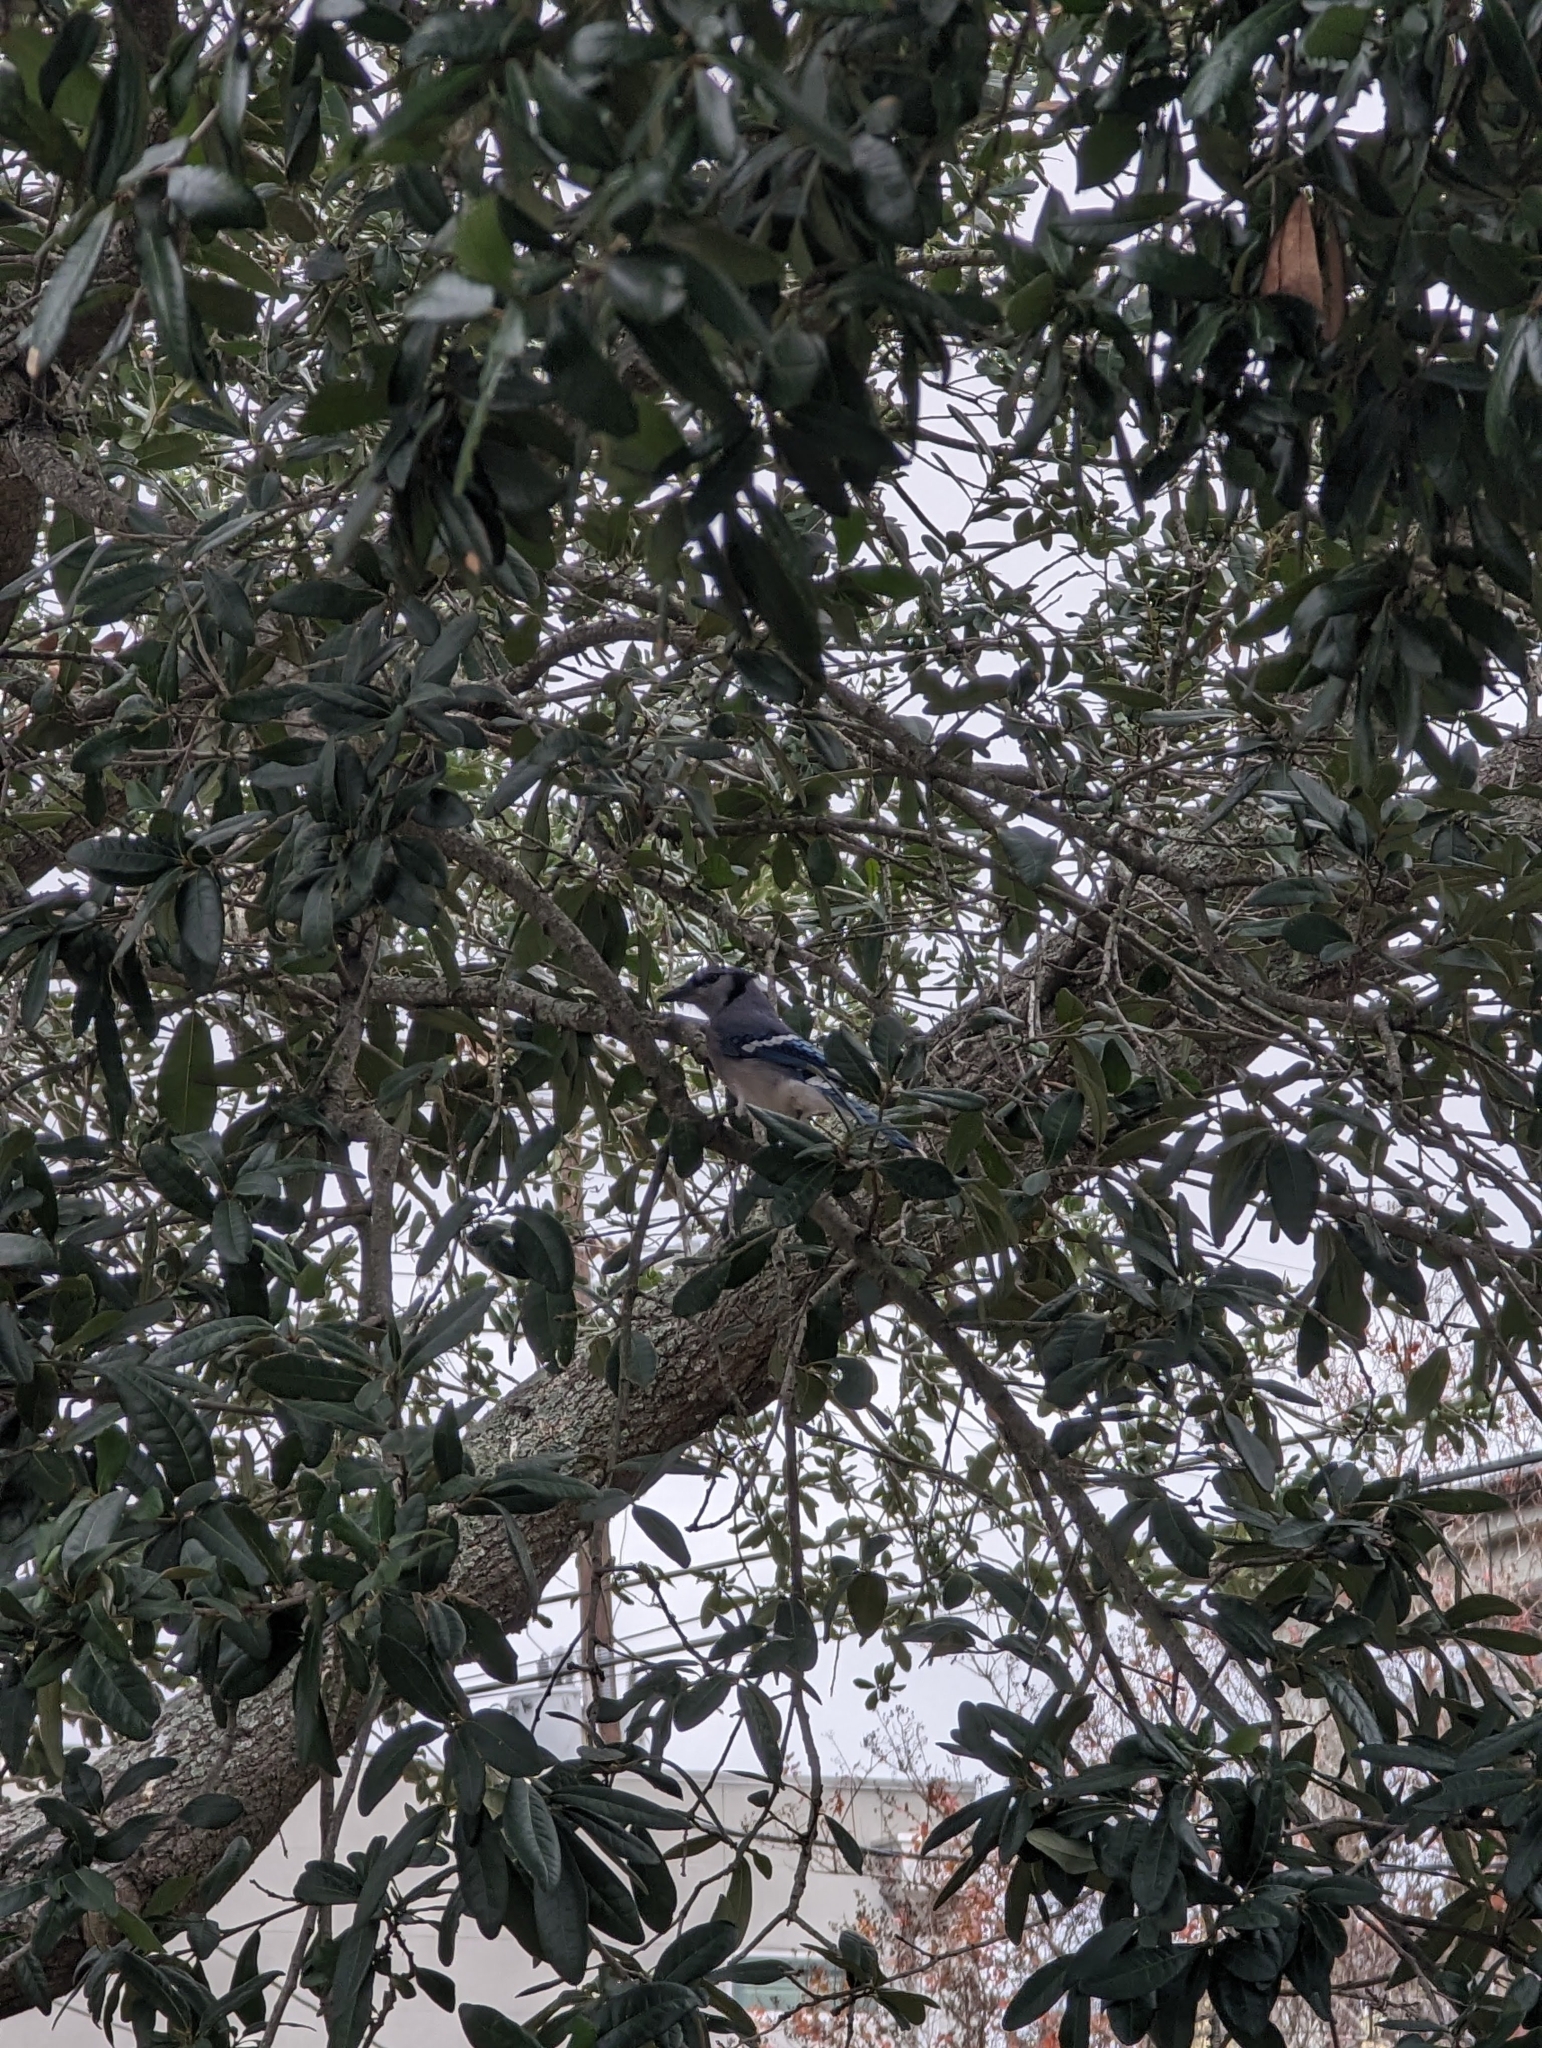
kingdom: Animalia
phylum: Chordata
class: Aves
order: Passeriformes
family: Corvidae
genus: Cyanocitta
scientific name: Cyanocitta cristata
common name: Blue jay
